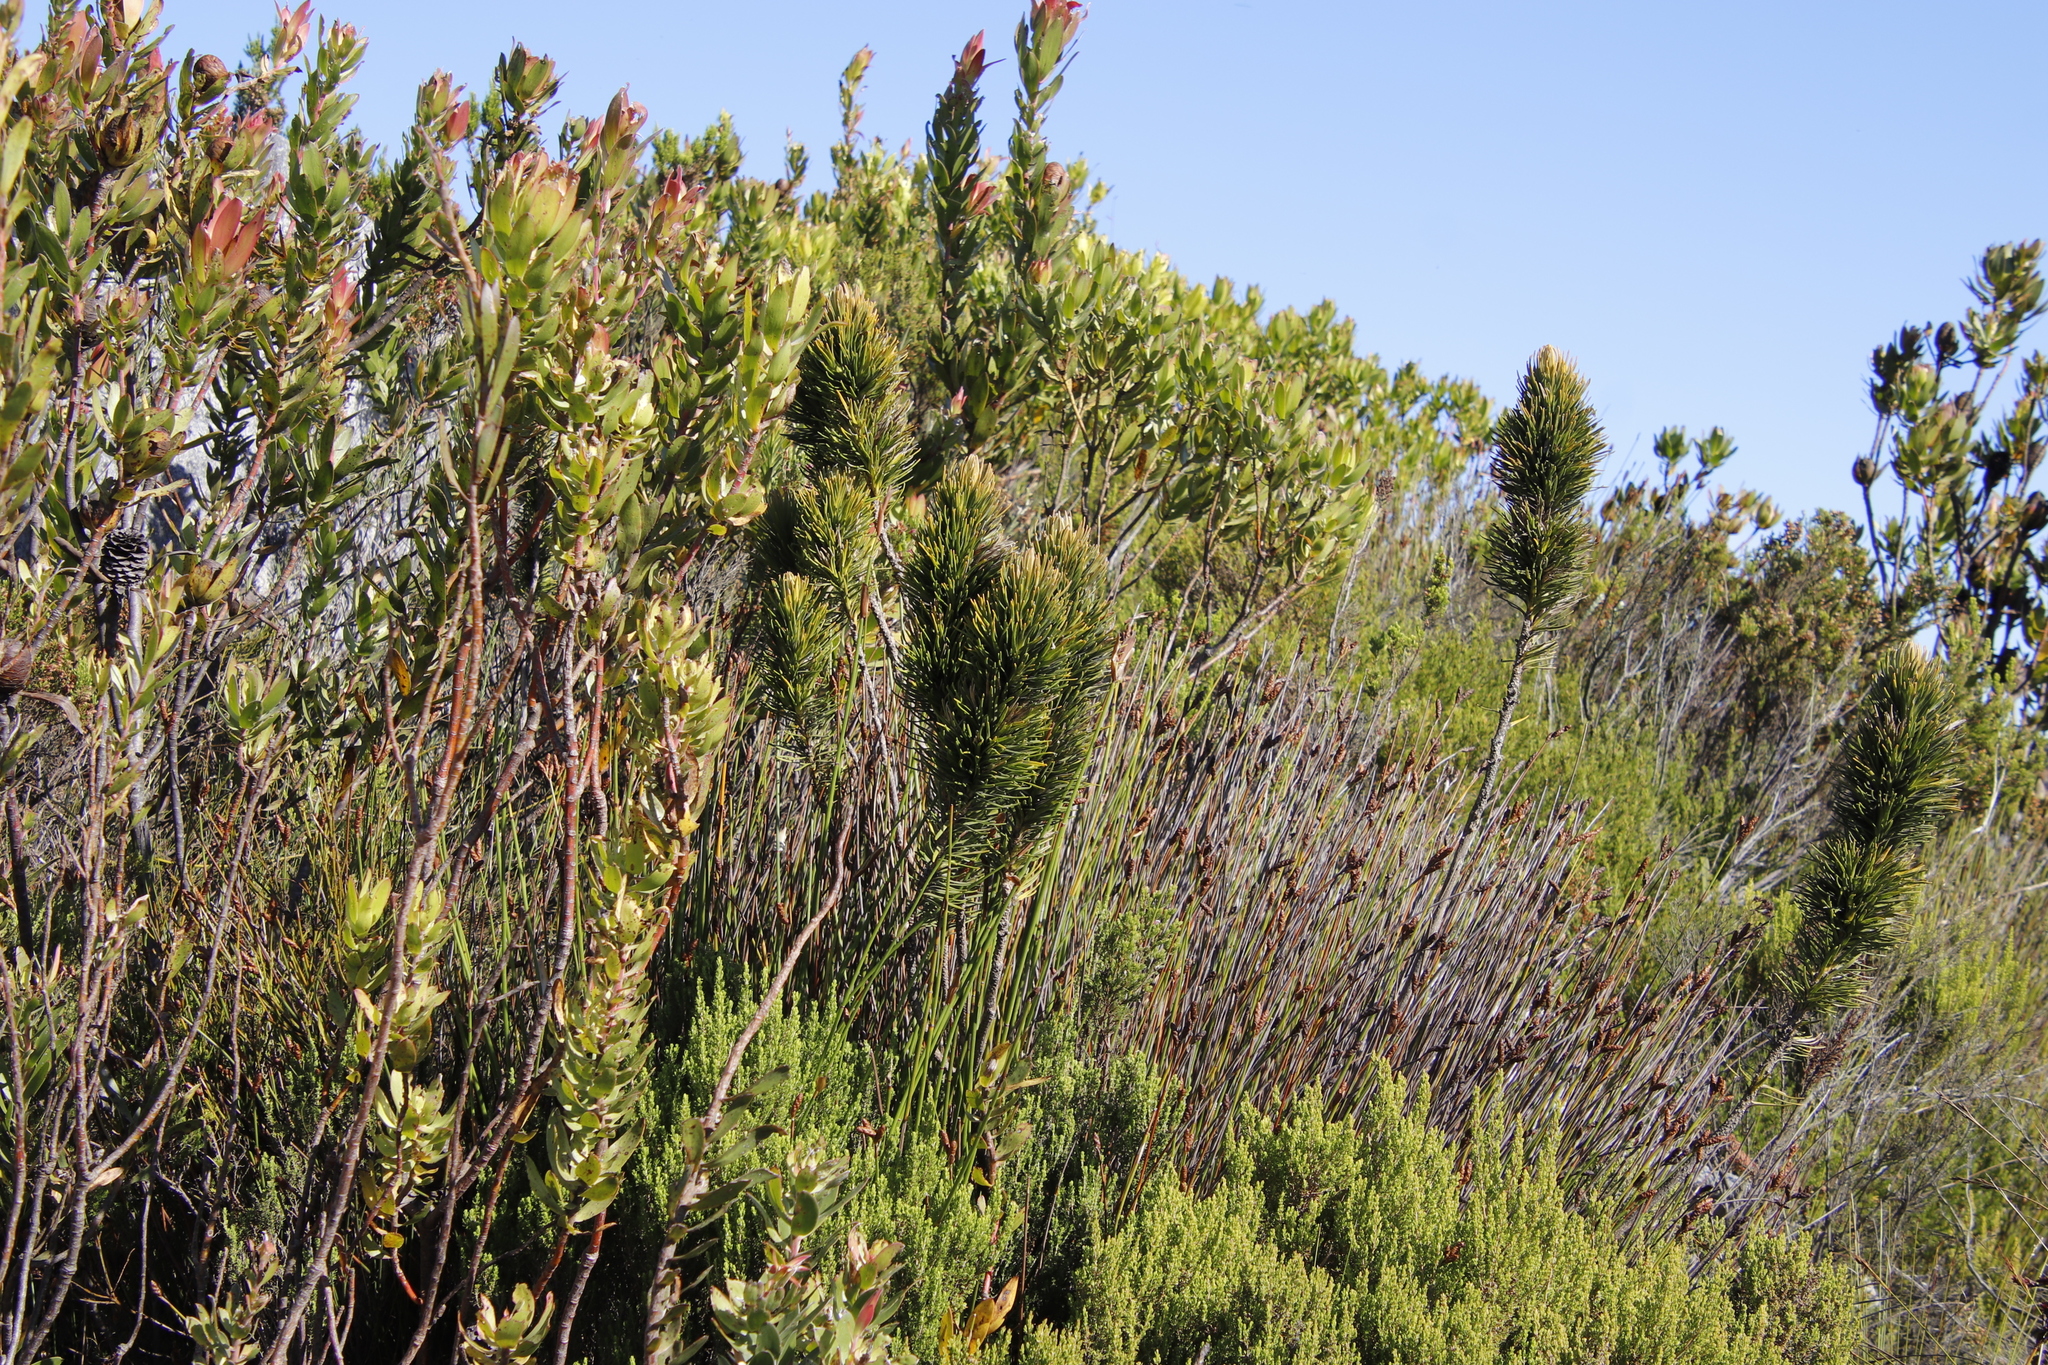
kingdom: Plantae
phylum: Tracheophyta
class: Magnoliopsida
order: Proteales
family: Proteaceae
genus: Leucadendron
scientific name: Leucadendron laureolum
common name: Golden sunshinebush
